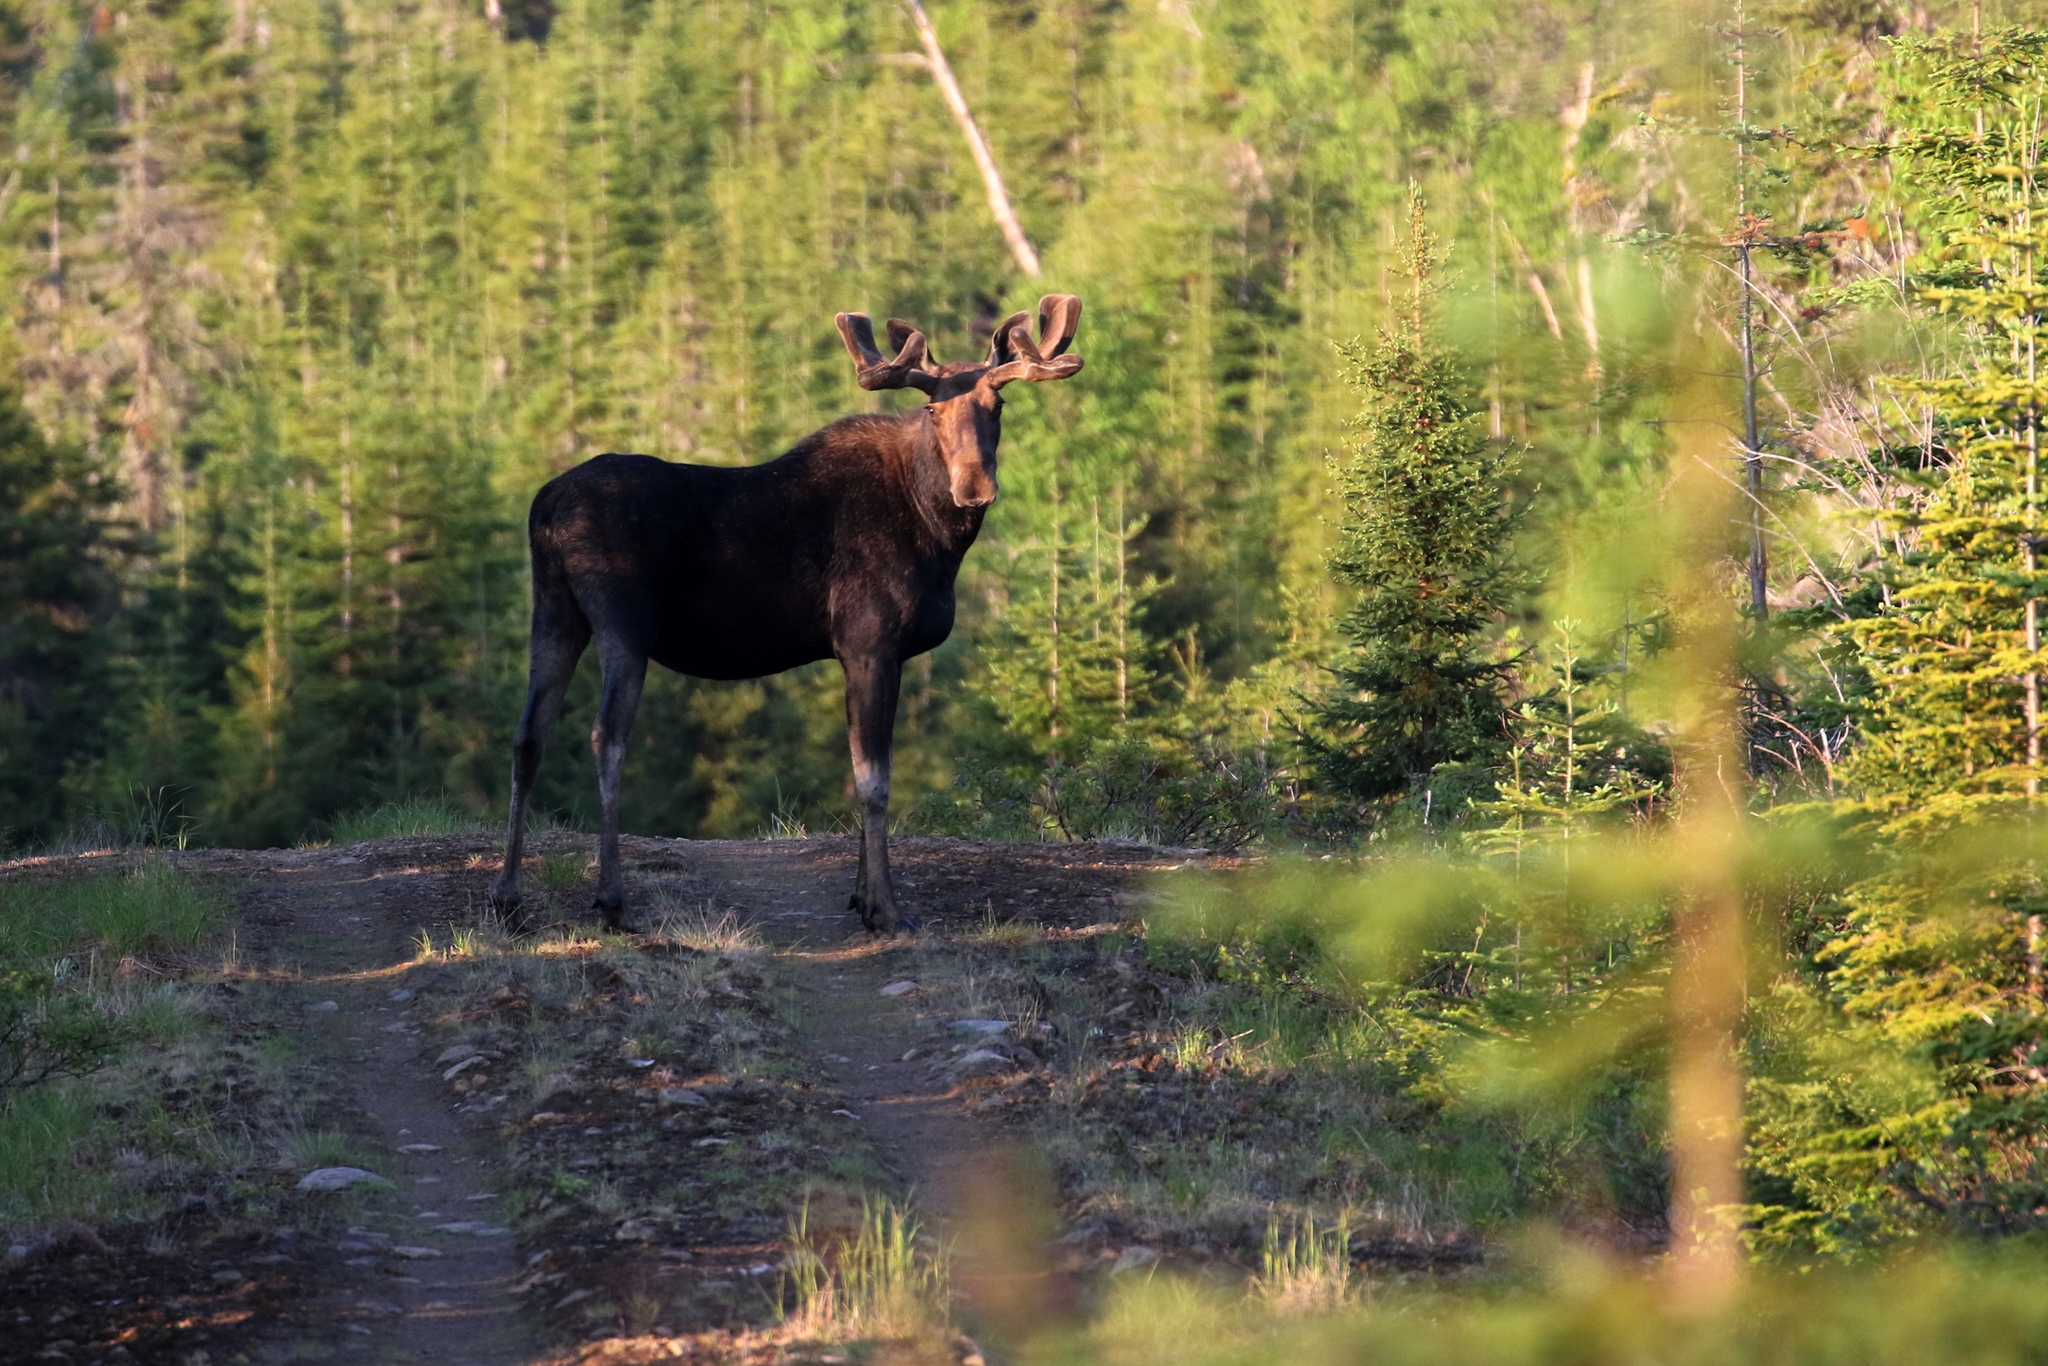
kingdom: Animalia
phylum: Chordata
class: Mammalia
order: Artiodactyla
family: Cervidae
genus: Alces
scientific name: Alces alces
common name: Moose
